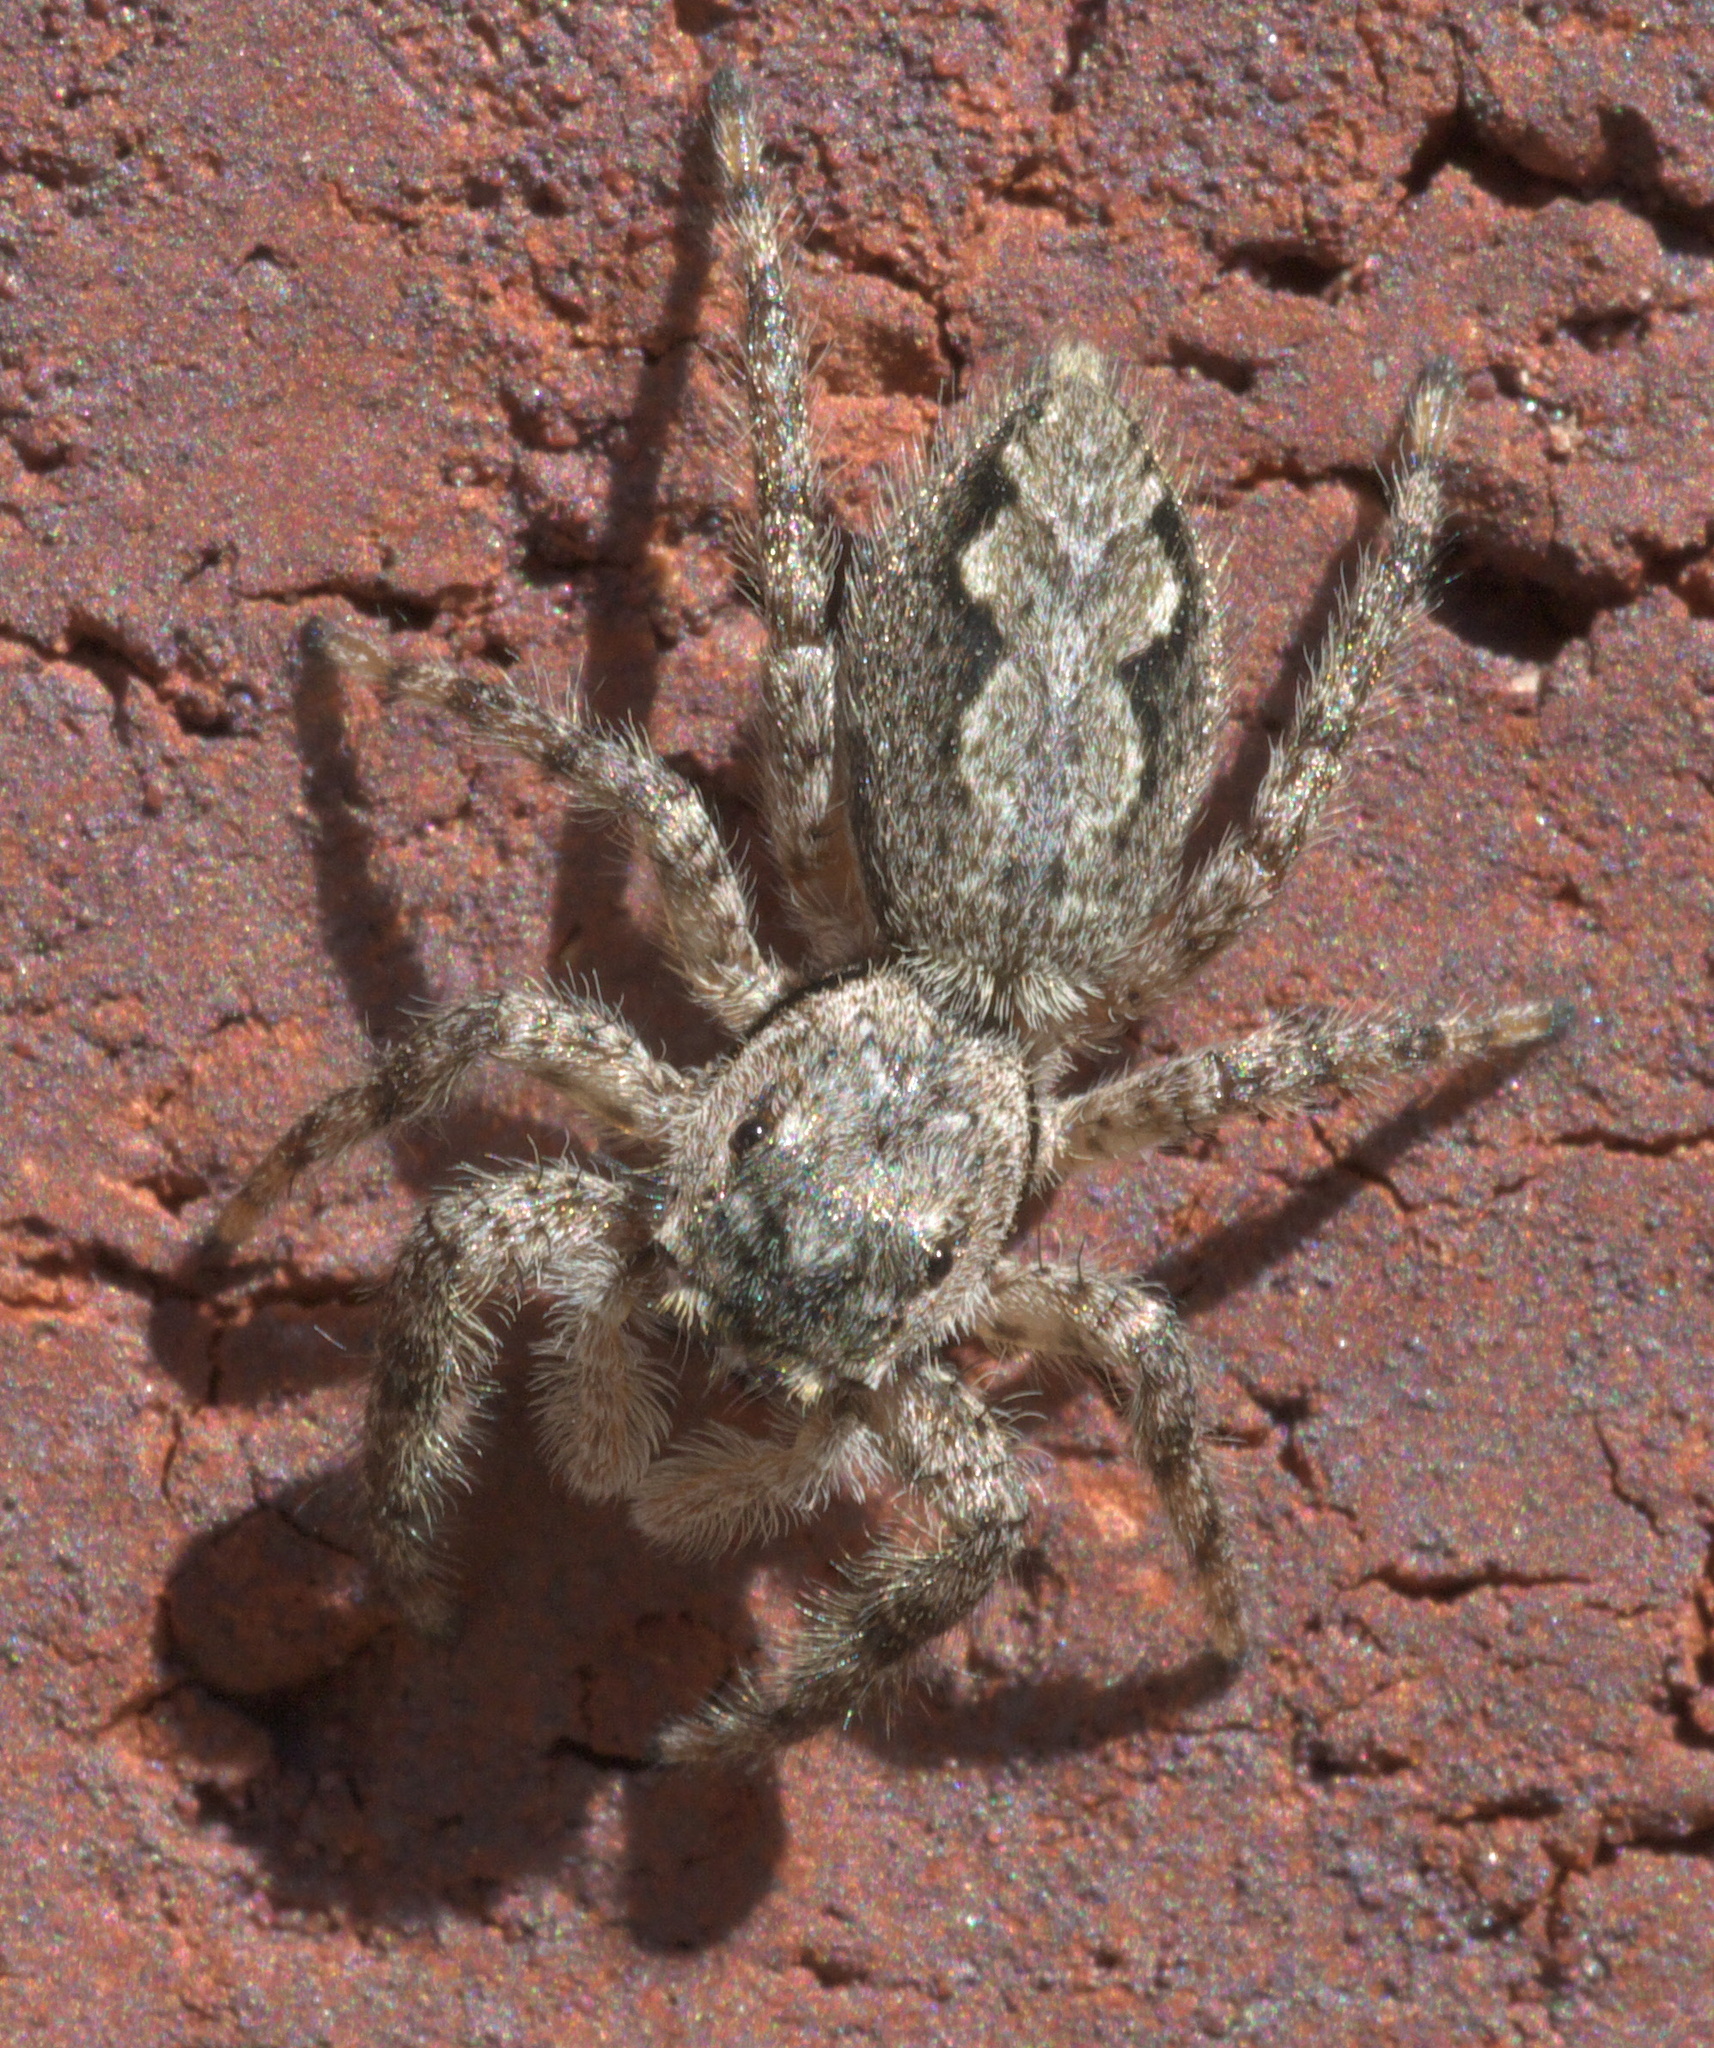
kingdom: Animalia
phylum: Arthropoda
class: Arachnida
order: Araneae
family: Salticidae
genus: Platycryptus
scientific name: Platycryptus undatus
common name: Tan jumping spider
